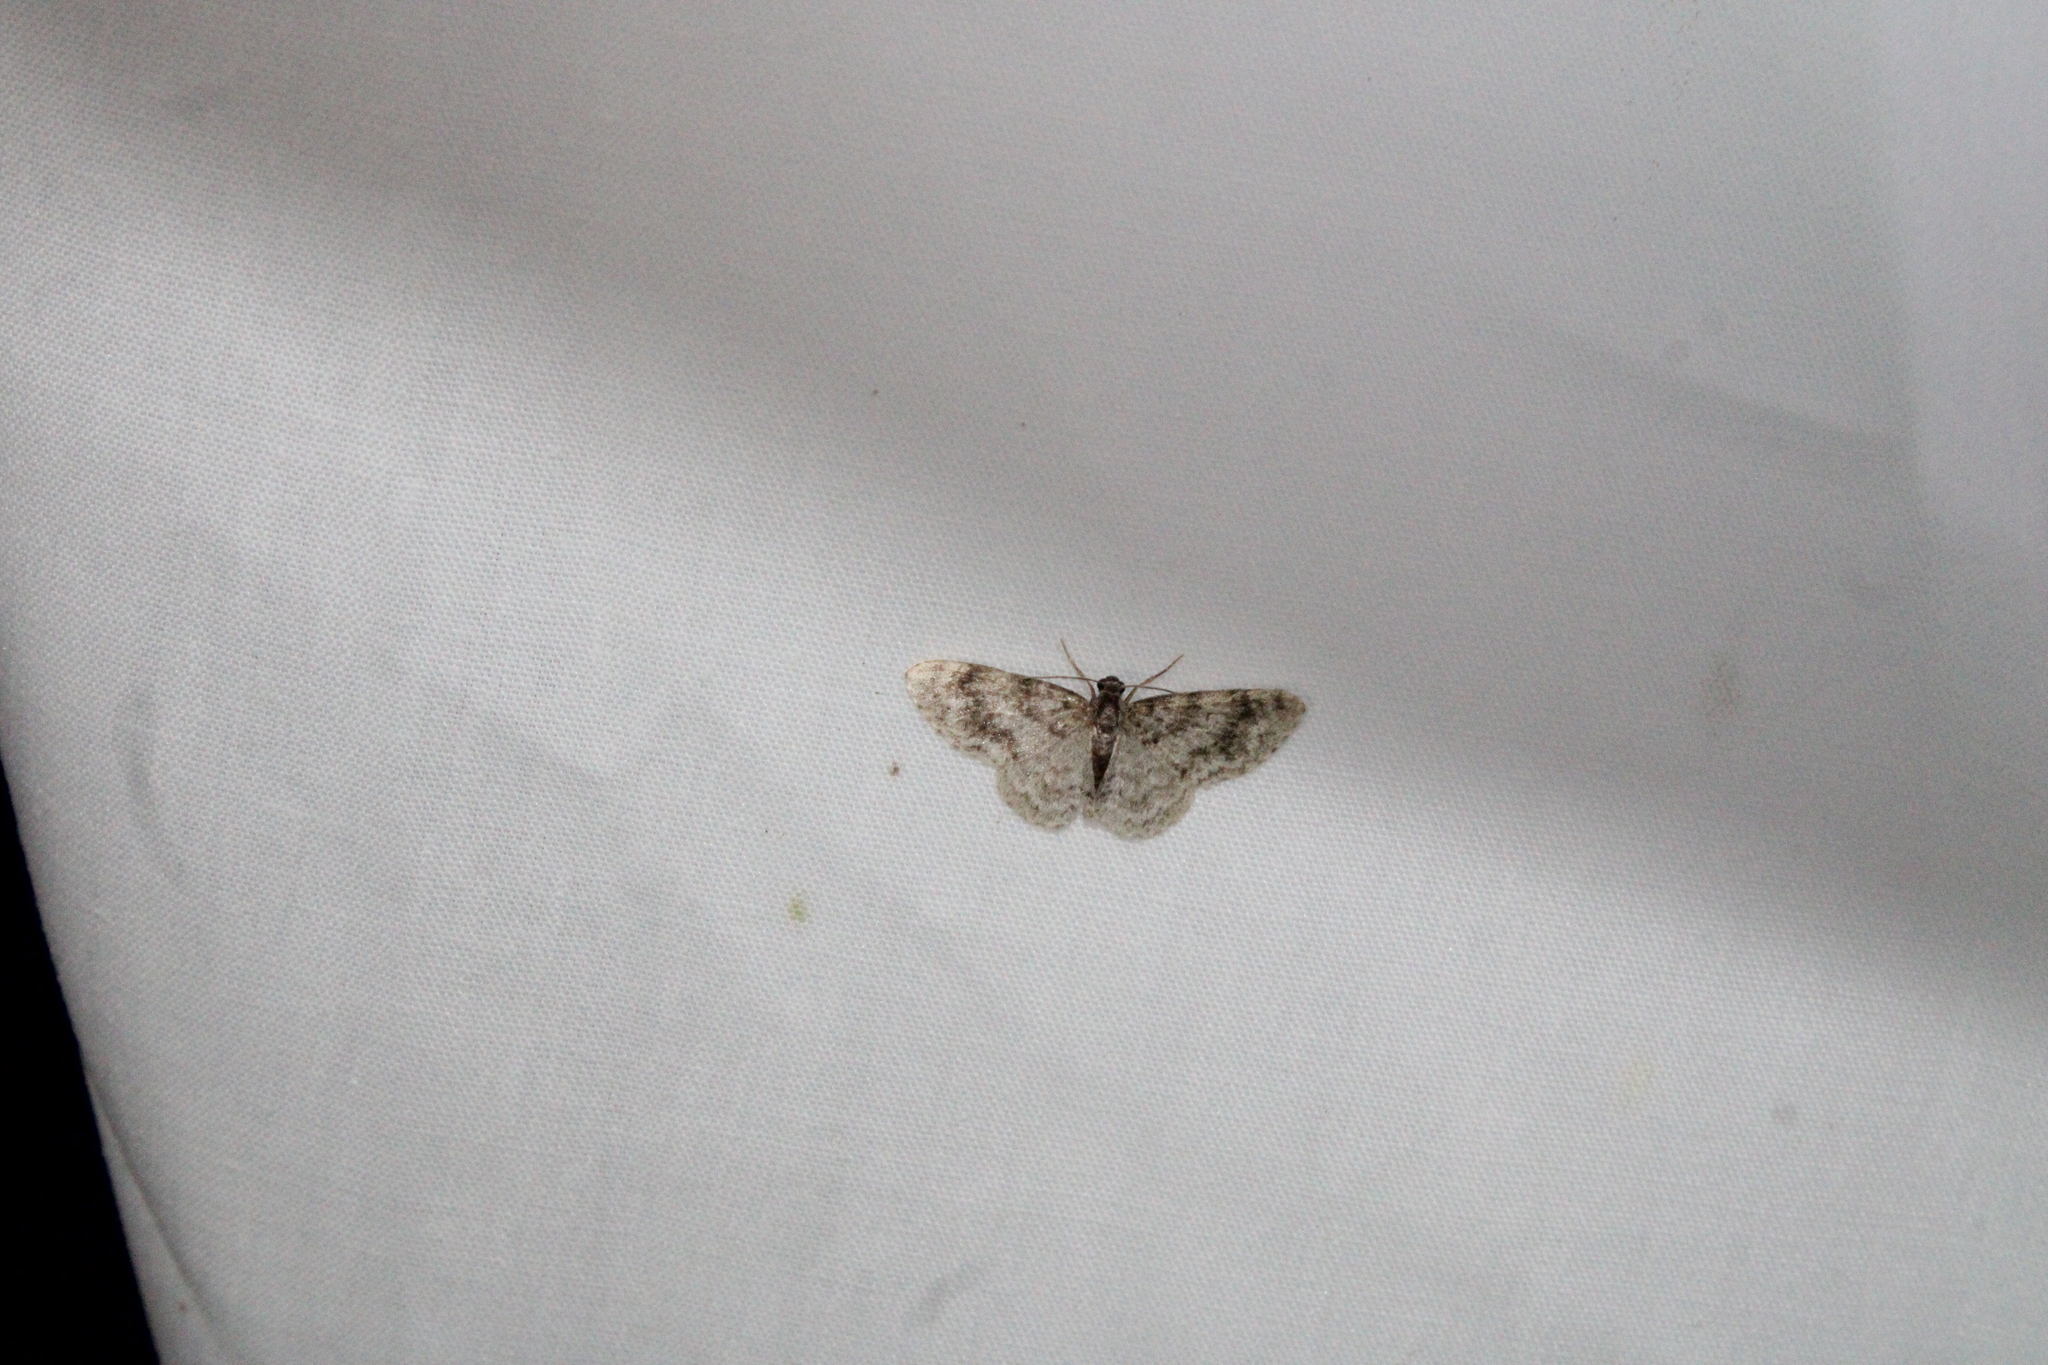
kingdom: Animalia
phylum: Arthropoda
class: Insecta
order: Lepidoptera
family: Geometridae
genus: Hydrelia
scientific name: Hydrelia lucata
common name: Light carpet moth
